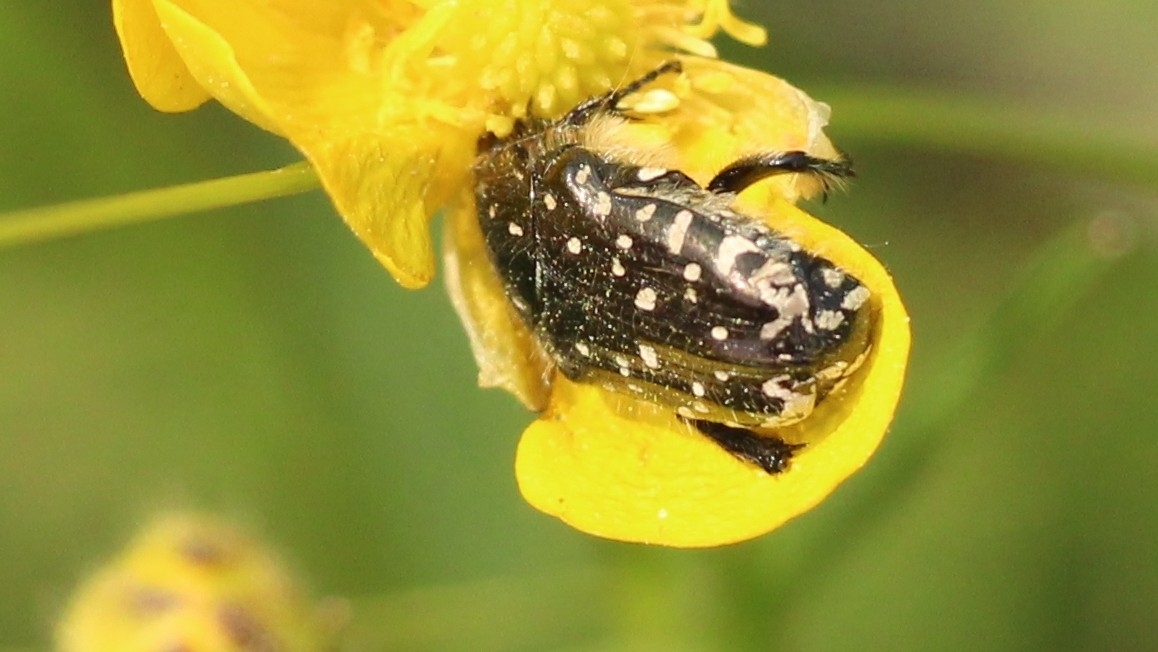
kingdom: Animalia
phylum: Arthropoda
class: Insecta
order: Coleoptera
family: Scarabaeidae
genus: Oxythyrea
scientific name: Oxythyrea funesta
